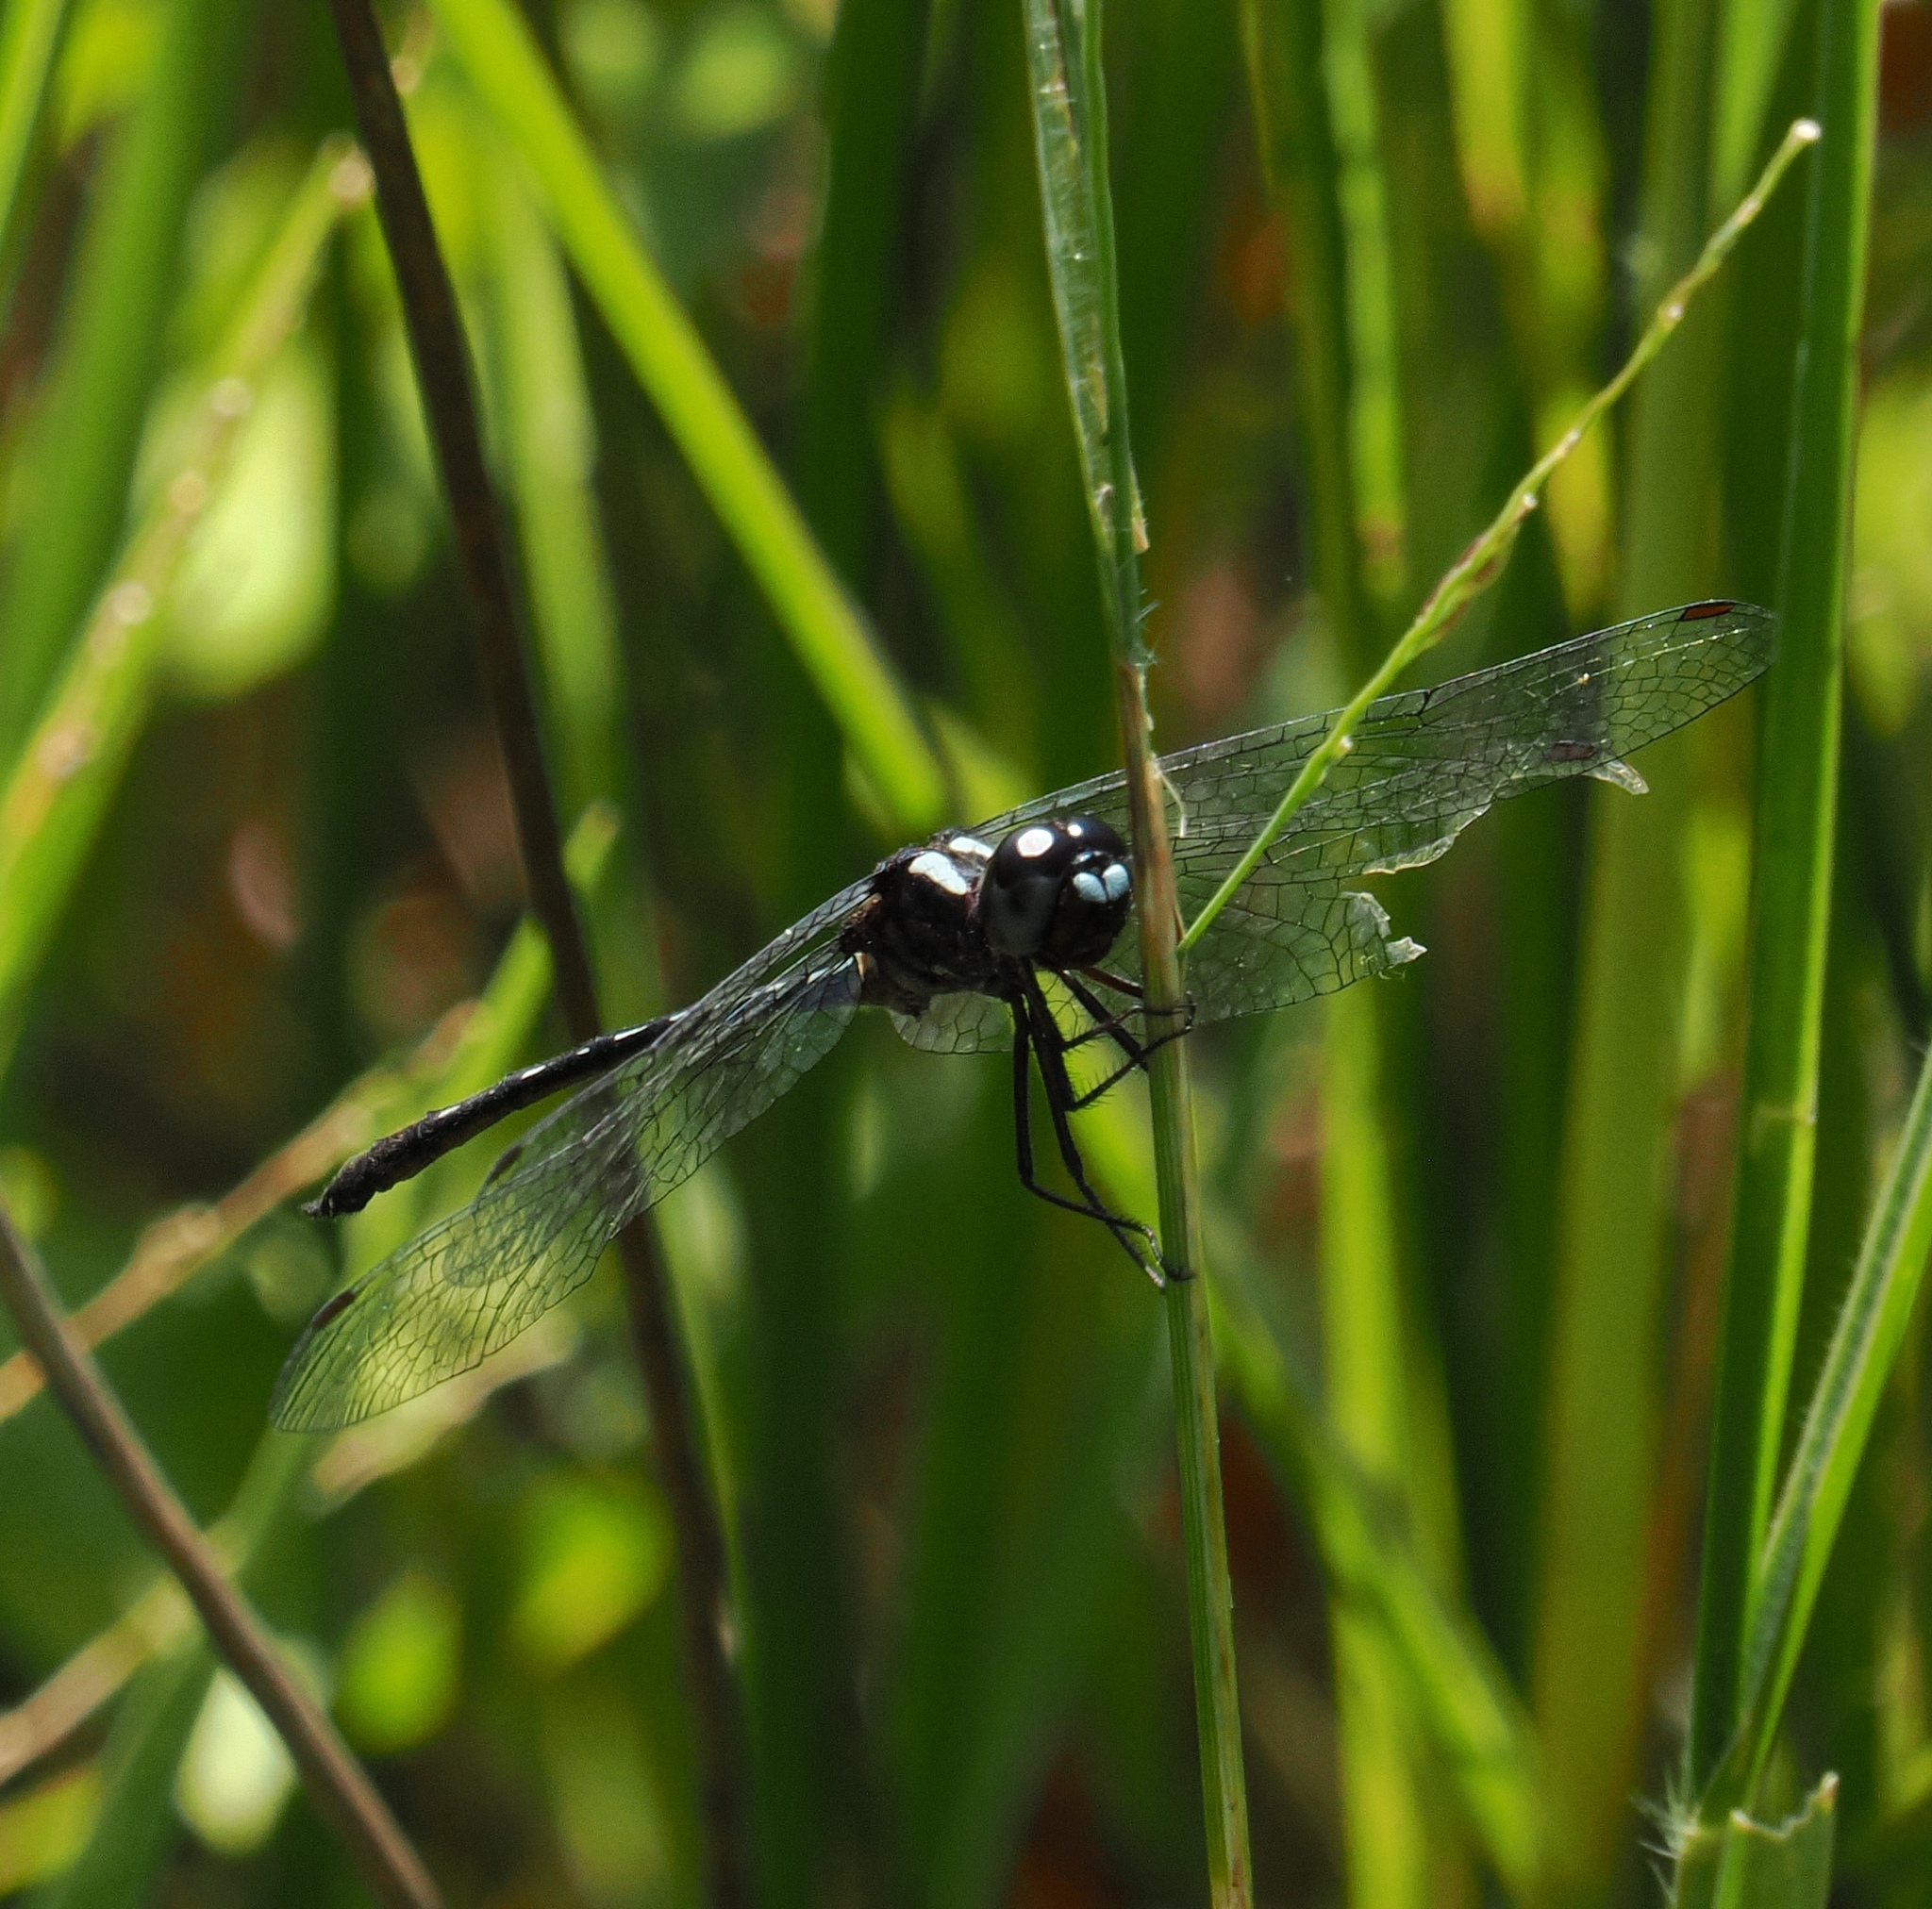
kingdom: Animalia
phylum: Arthropoda
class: Insecta
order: Odonata
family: Libellulidae
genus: Macrothemis
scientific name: Macrothemis capitata
